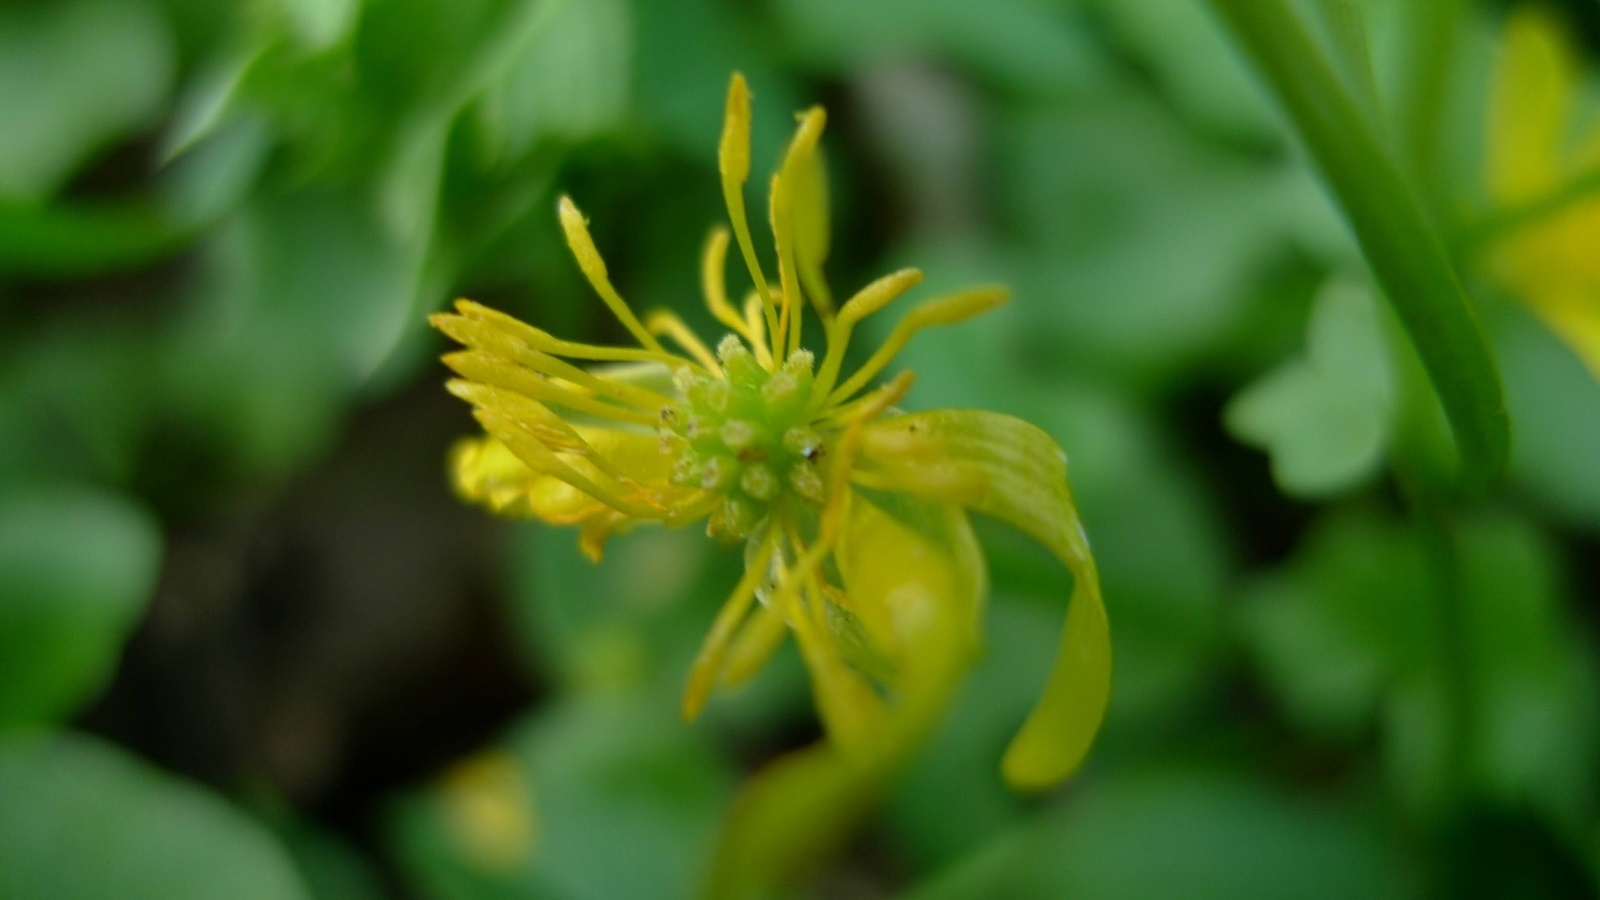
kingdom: Plantae
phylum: Tracheophyta
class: Magnoliopsida
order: Ranunculales
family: Ranunculaceae
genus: Ficaria
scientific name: Ficaria verna
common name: Lesser celandine
